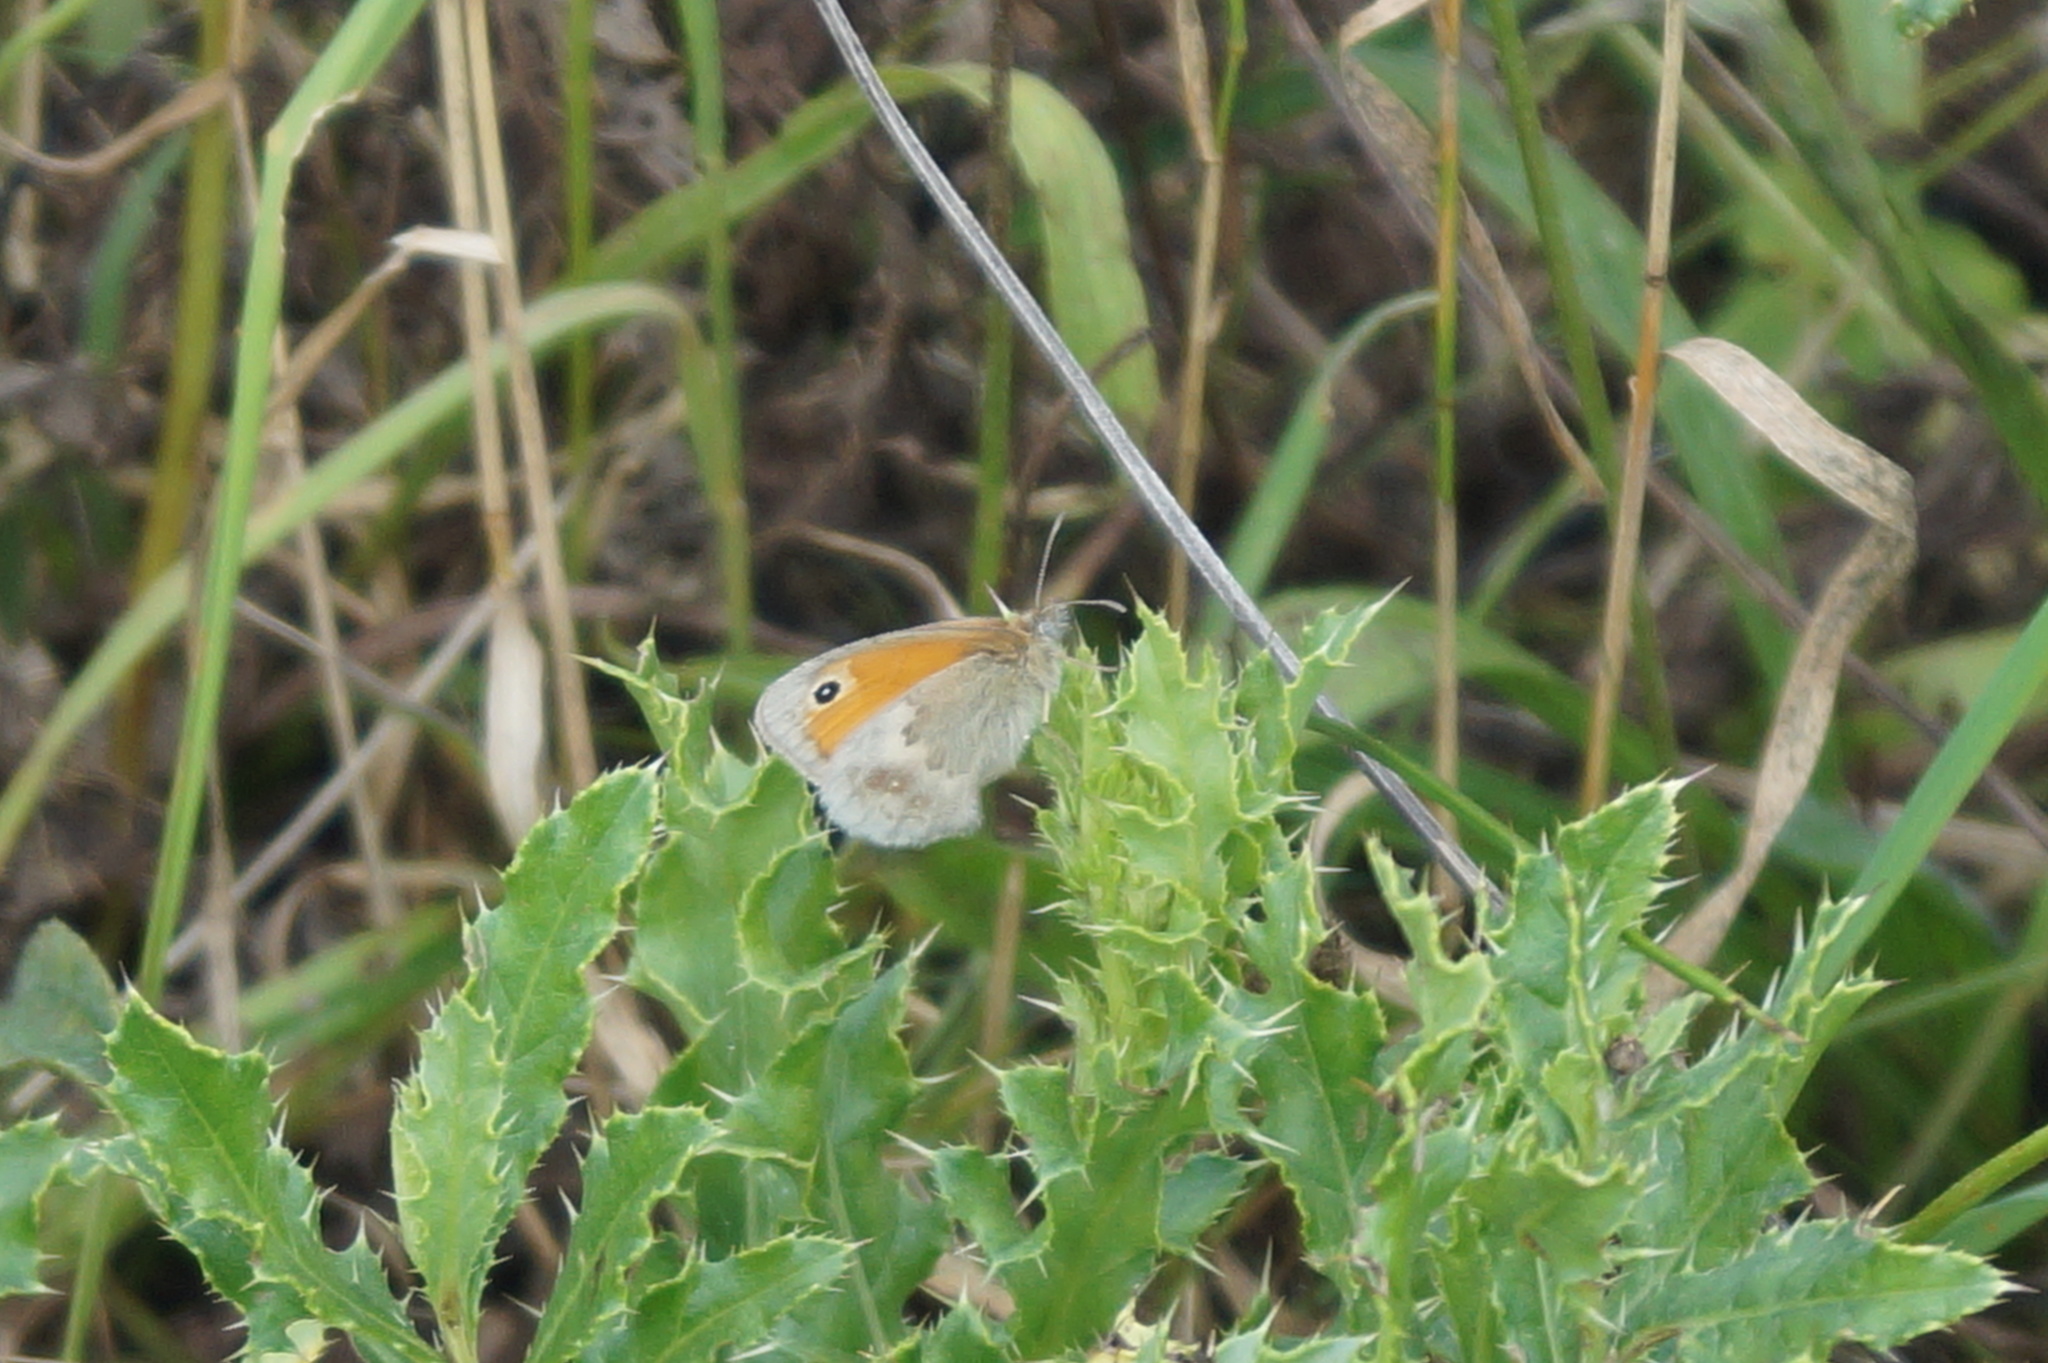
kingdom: Animalia
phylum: Arthropoda
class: Insecta
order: Lepidoptera
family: Nymphalidae
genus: Coenonympha
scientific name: Coenonympha pamphilus
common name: Small heath
